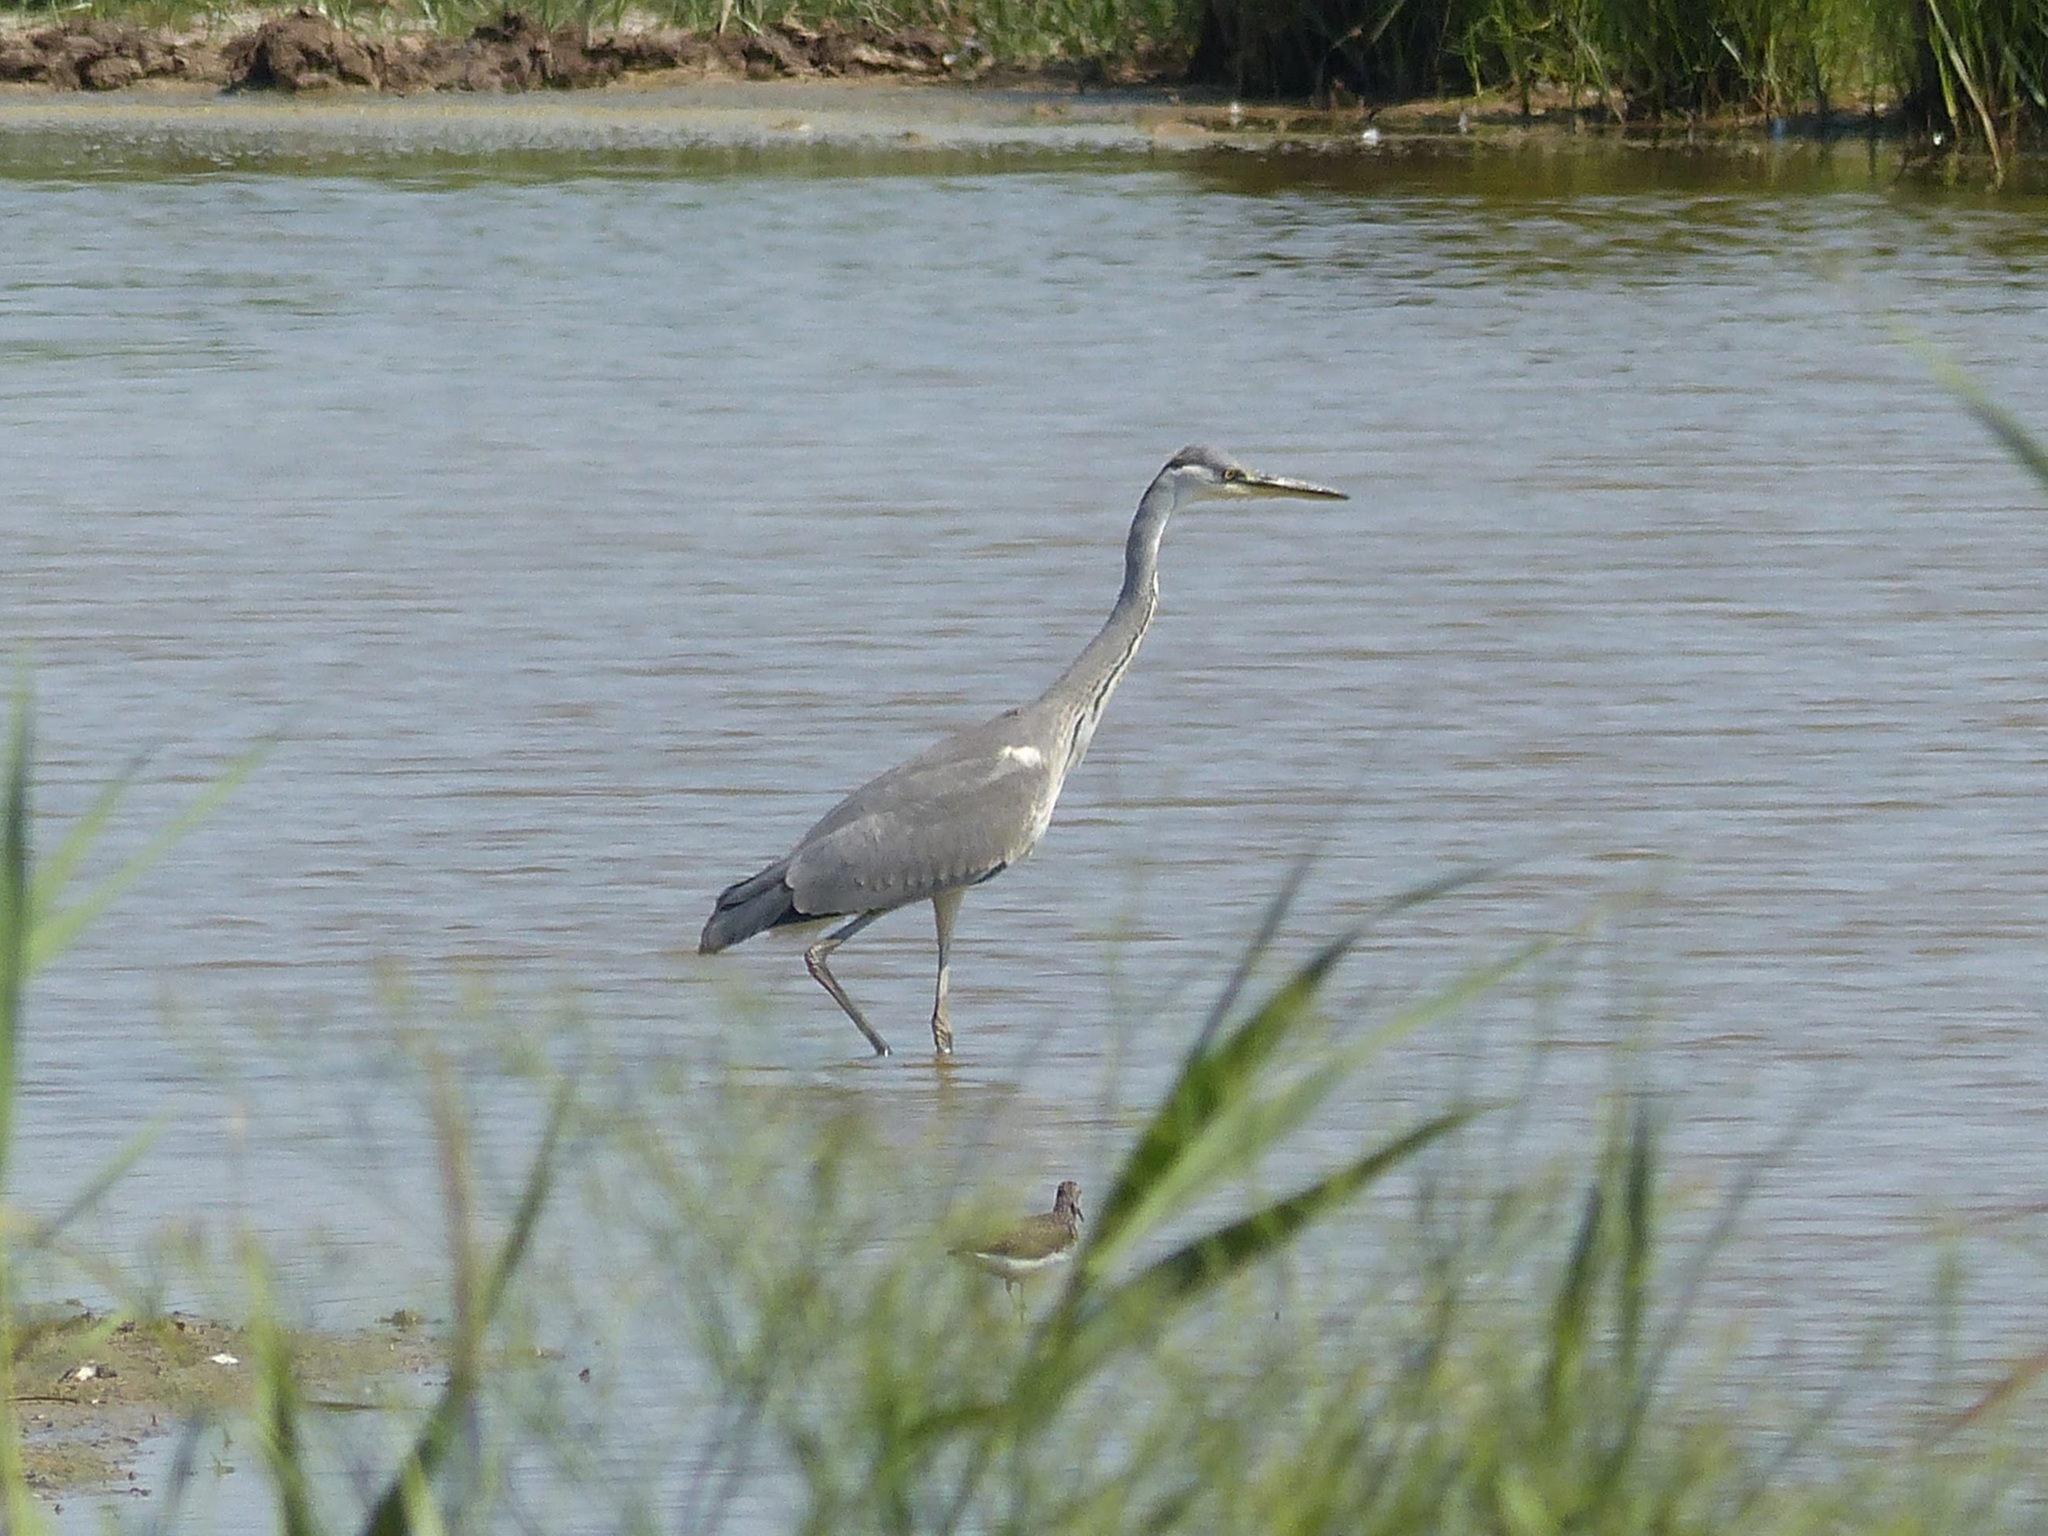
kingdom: Animalia
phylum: Chordata
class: Aves
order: Pelecaniformes
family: Ardeidae
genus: Ardea
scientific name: Ardea cinerea
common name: Grey heron
